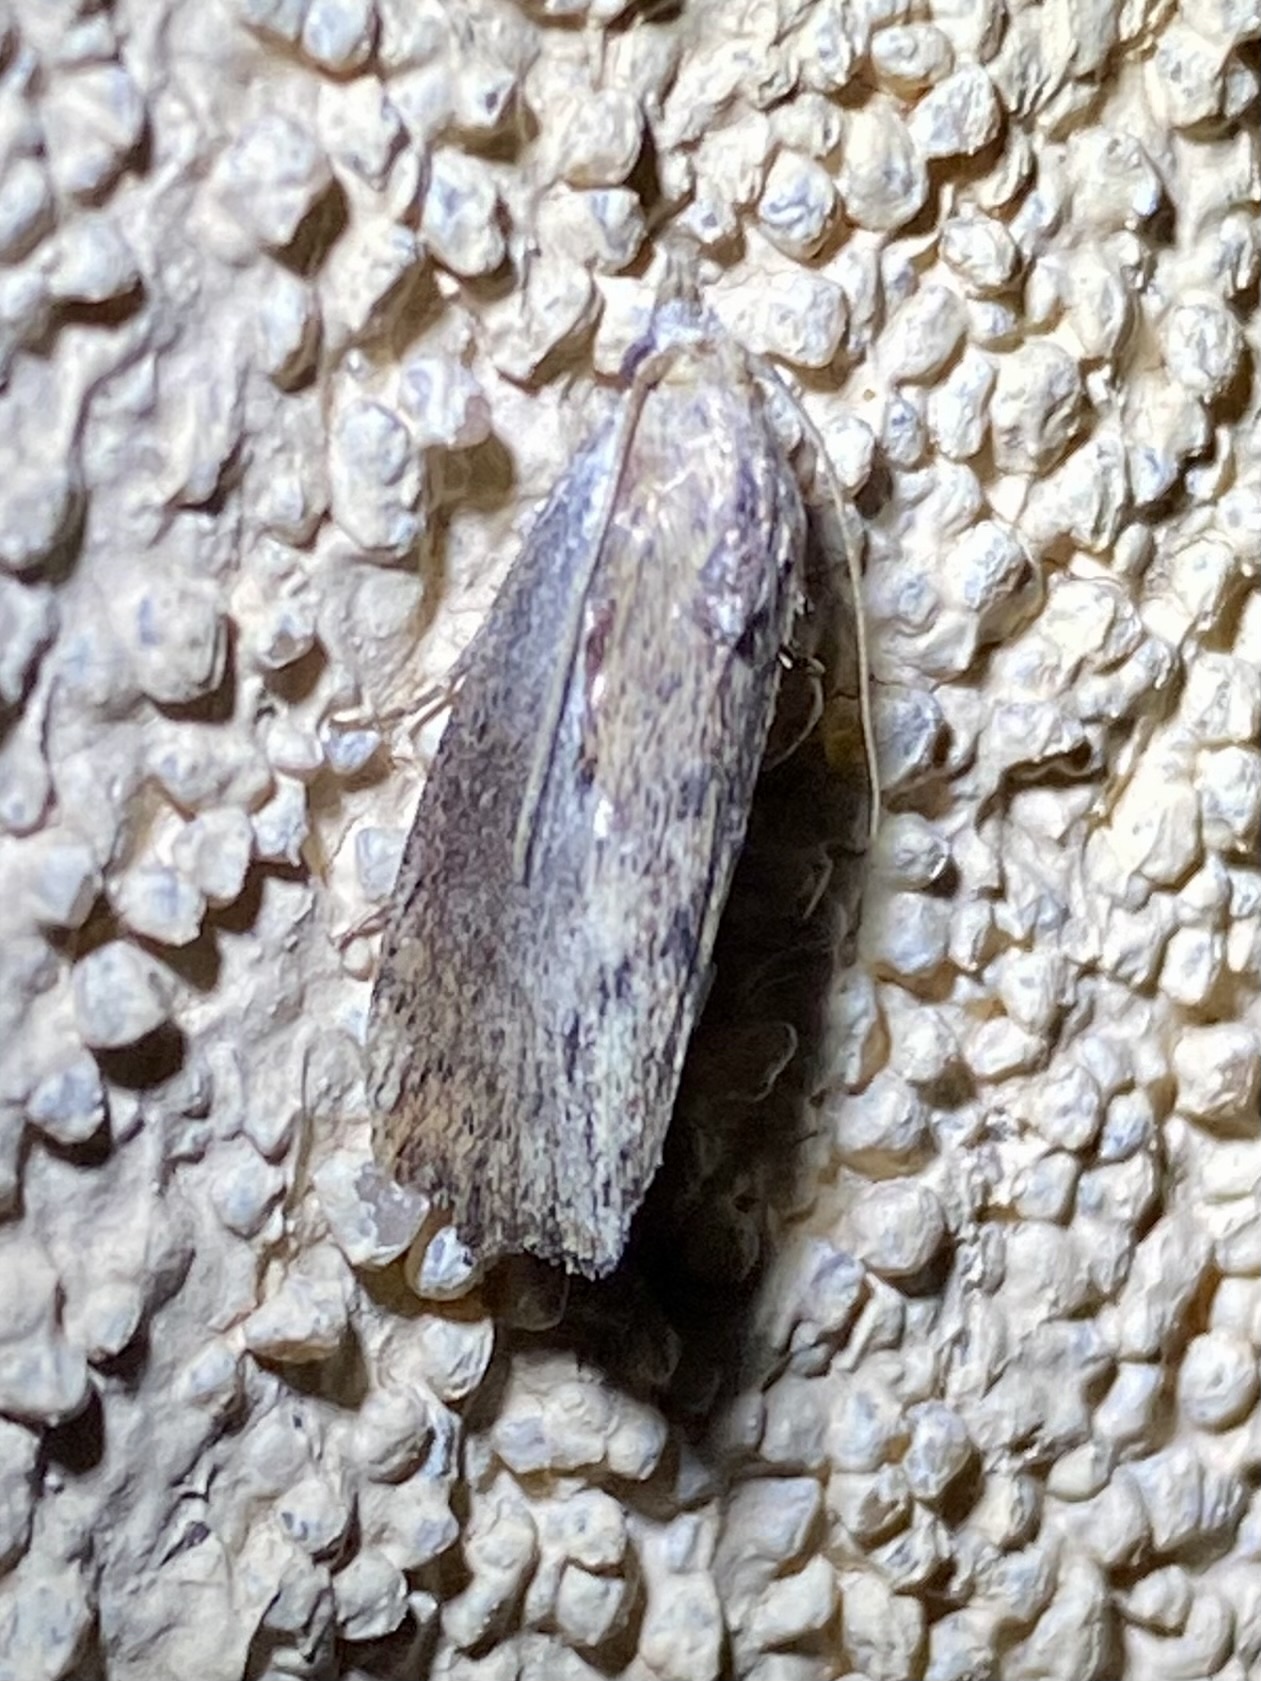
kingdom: Animalia
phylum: Arthropoda
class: Insecta
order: Lepidoptera
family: Pyralidae
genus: Galleria
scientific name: Galleria mellonella
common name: Greater wax moth
